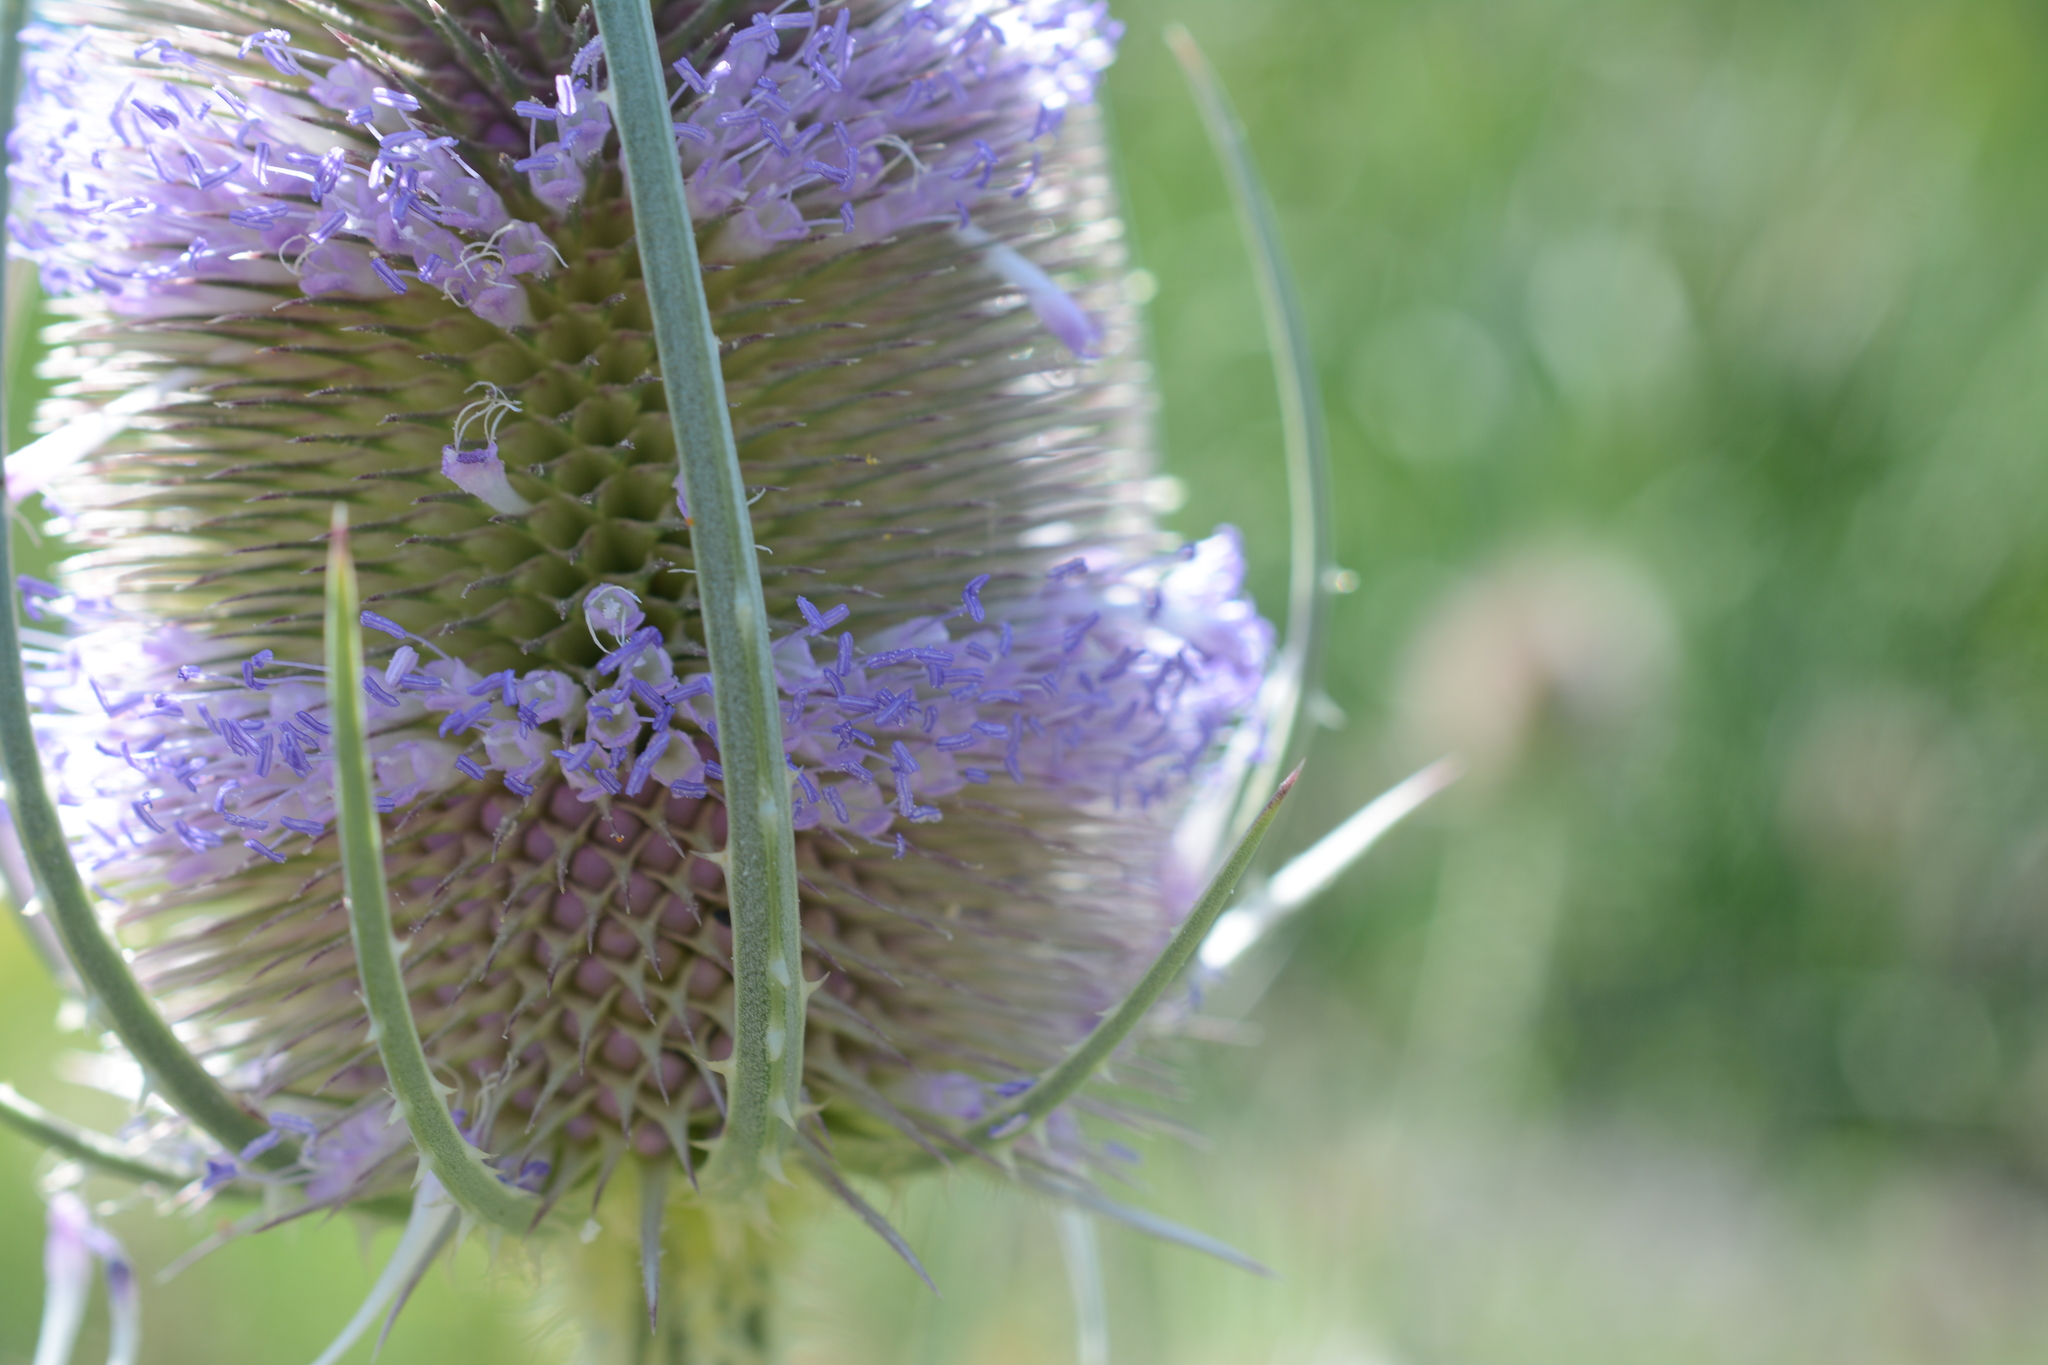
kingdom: Plantae
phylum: Tracheophyta
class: Magnoliopsida
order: Dipsacales
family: Caprifoliaceae
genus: Dipsacus
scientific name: Dipsacus fullonum
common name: Teasel
